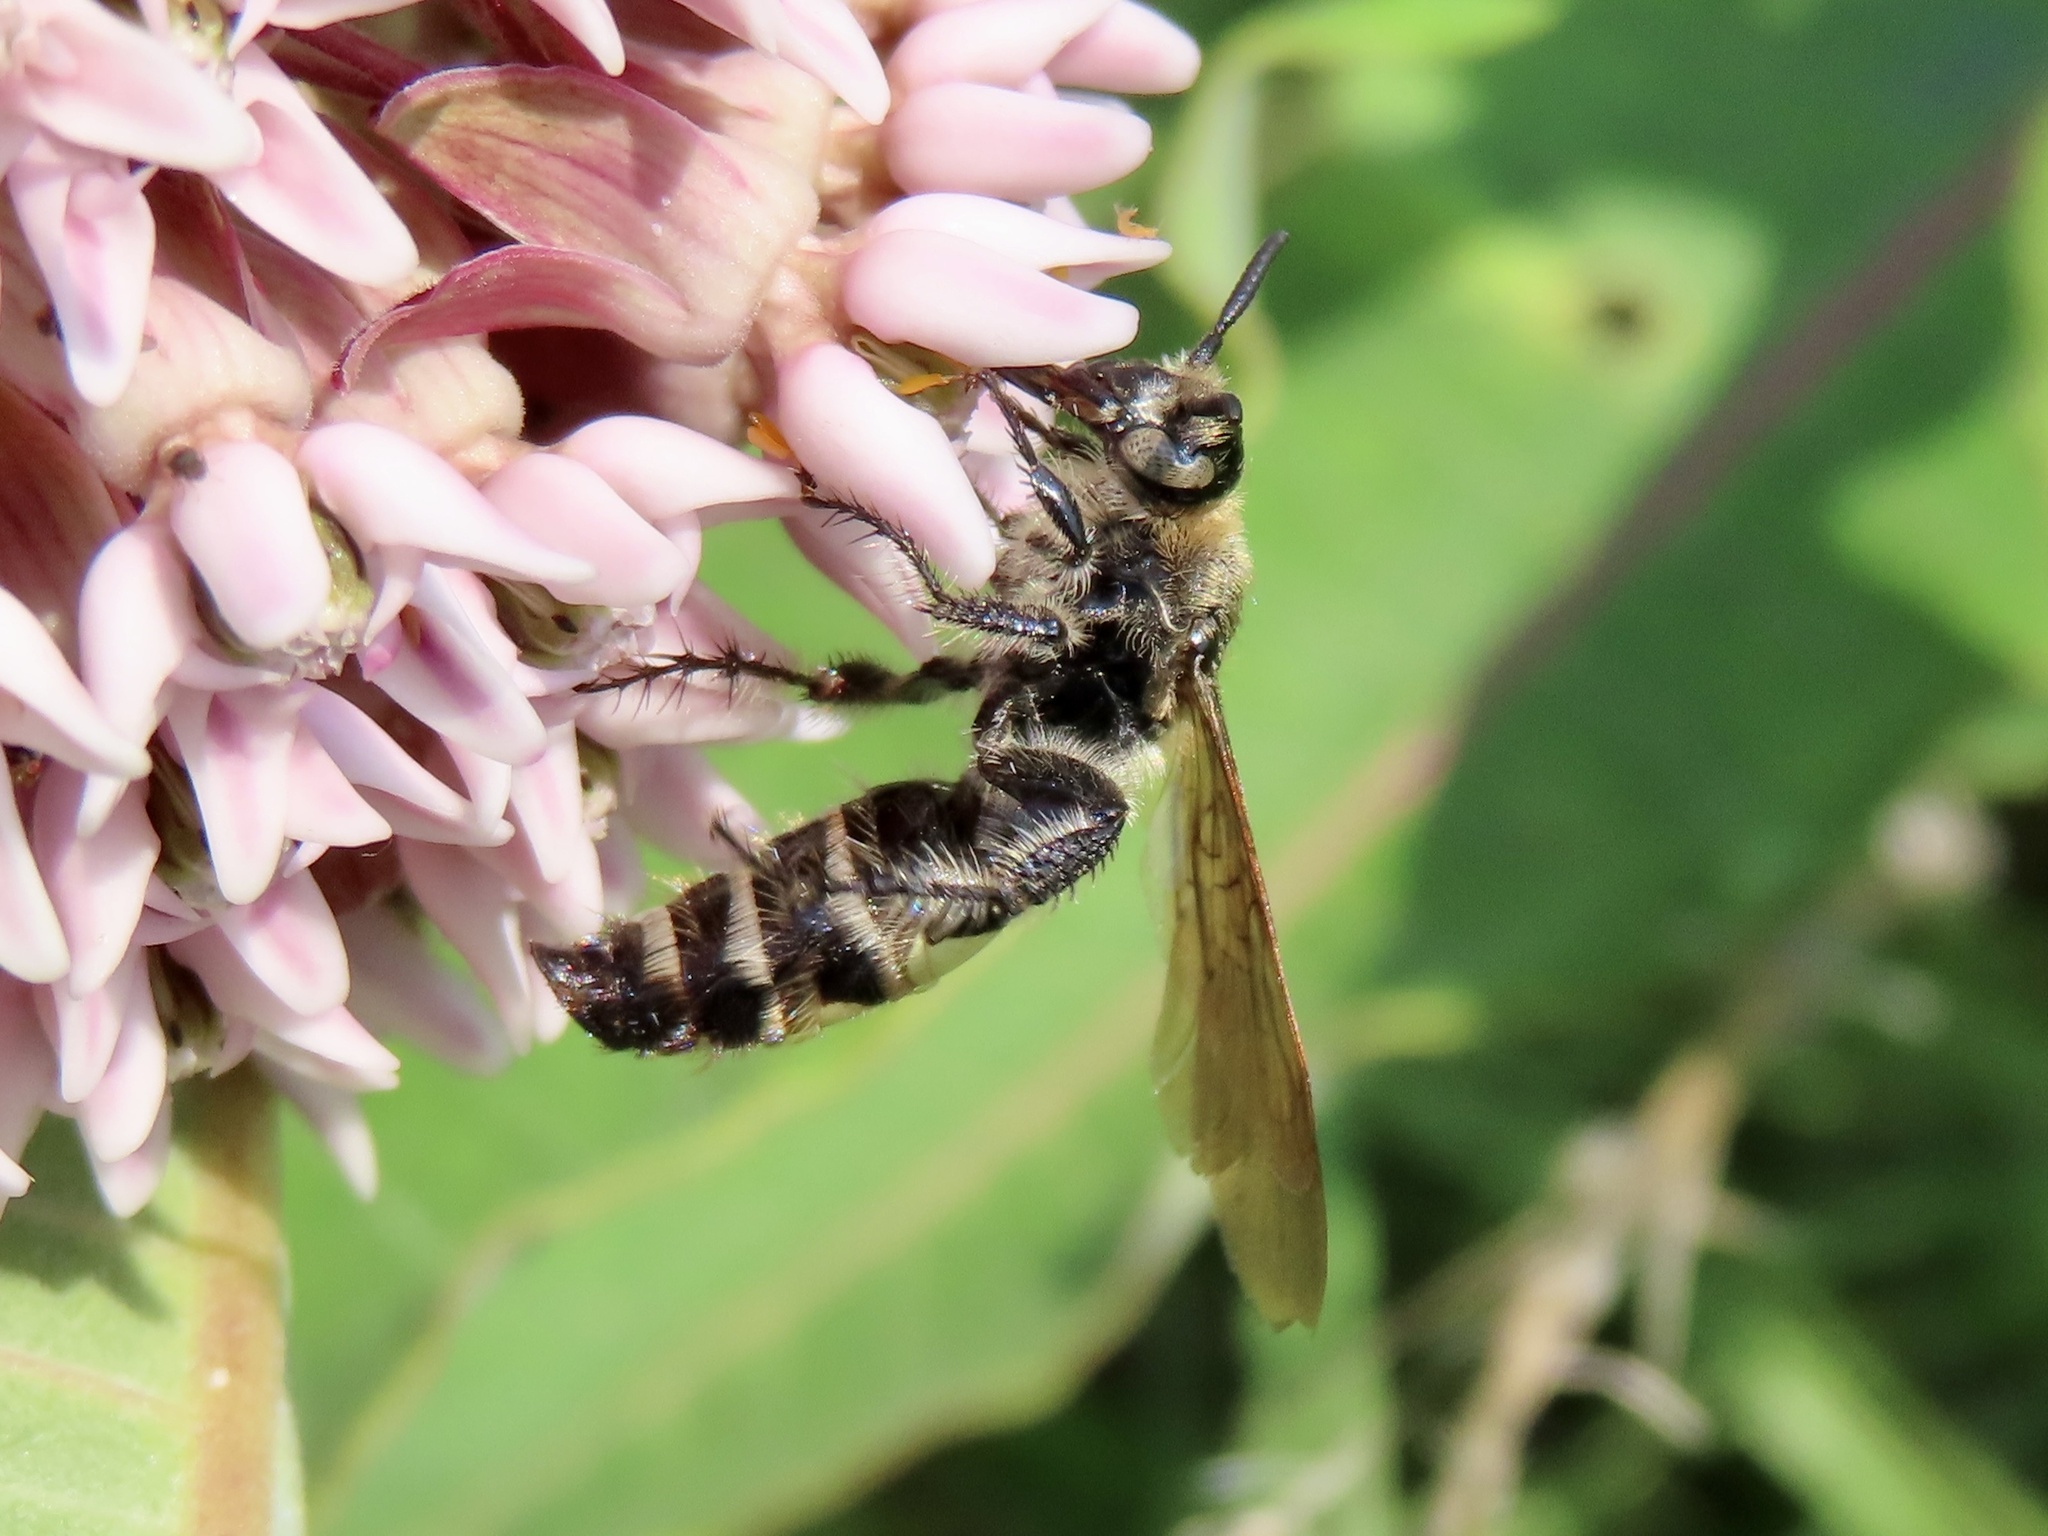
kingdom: Animalia
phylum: Arthropoda
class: Insecta
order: Hymenoptera
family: Scoliidae
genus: Dielis
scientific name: Dielis
